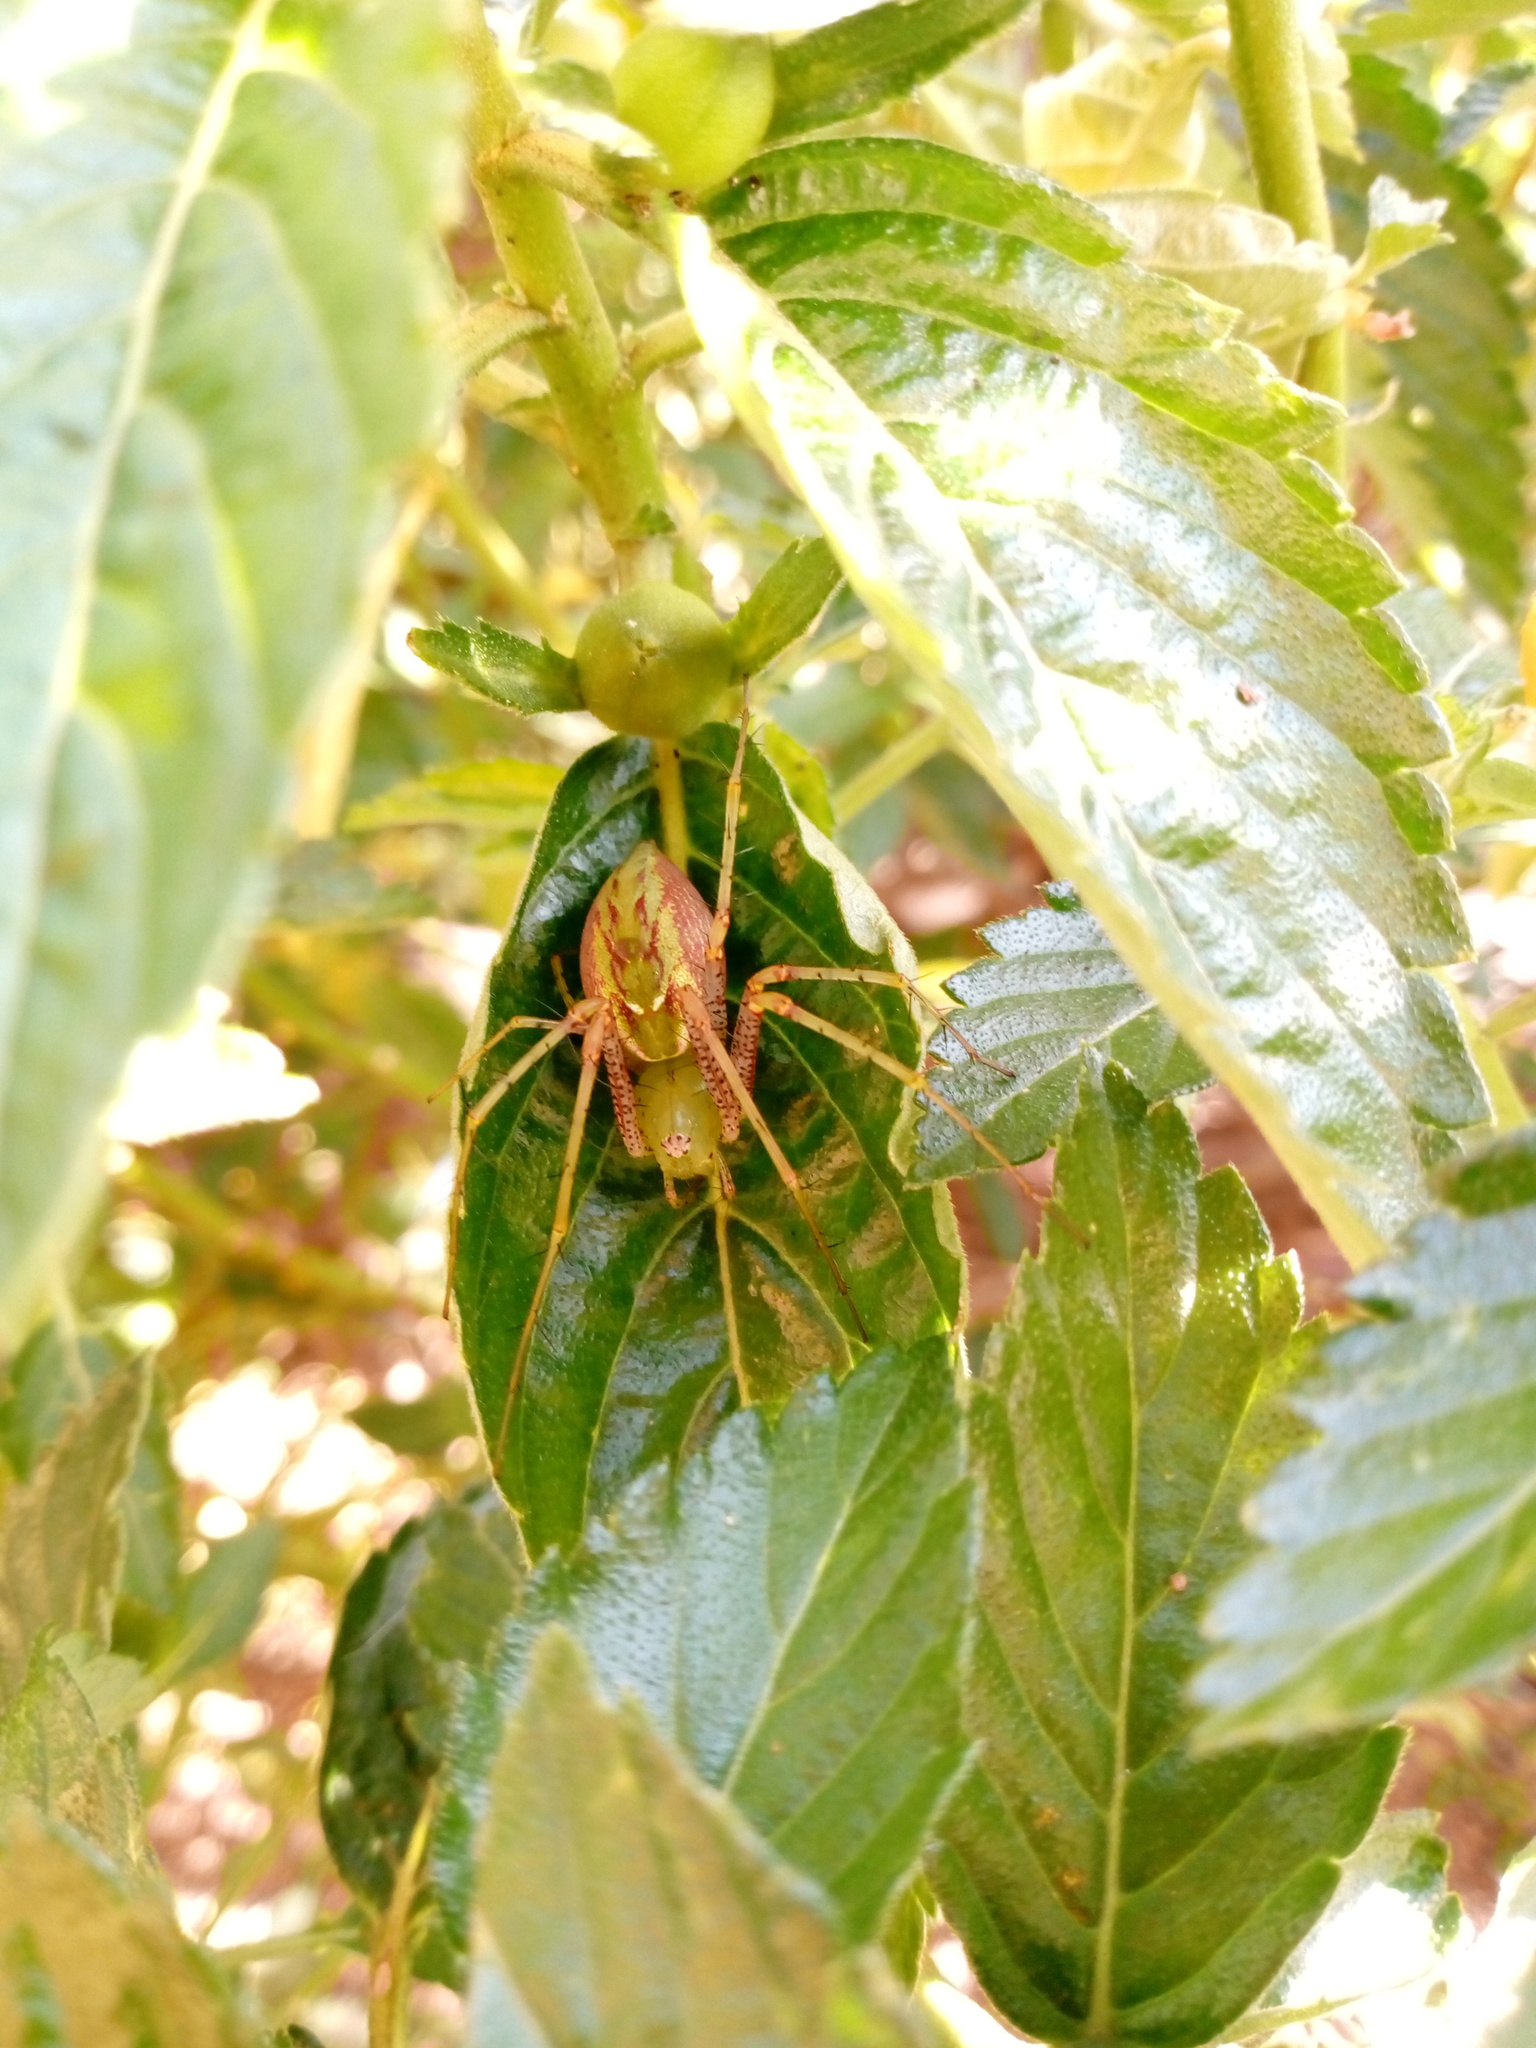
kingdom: Animalia
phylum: Arthropoda
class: Arachnida
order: Araneae
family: Oxyopidae
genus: Peucetia
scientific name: Peucetia viridans
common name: Lynx spiders
